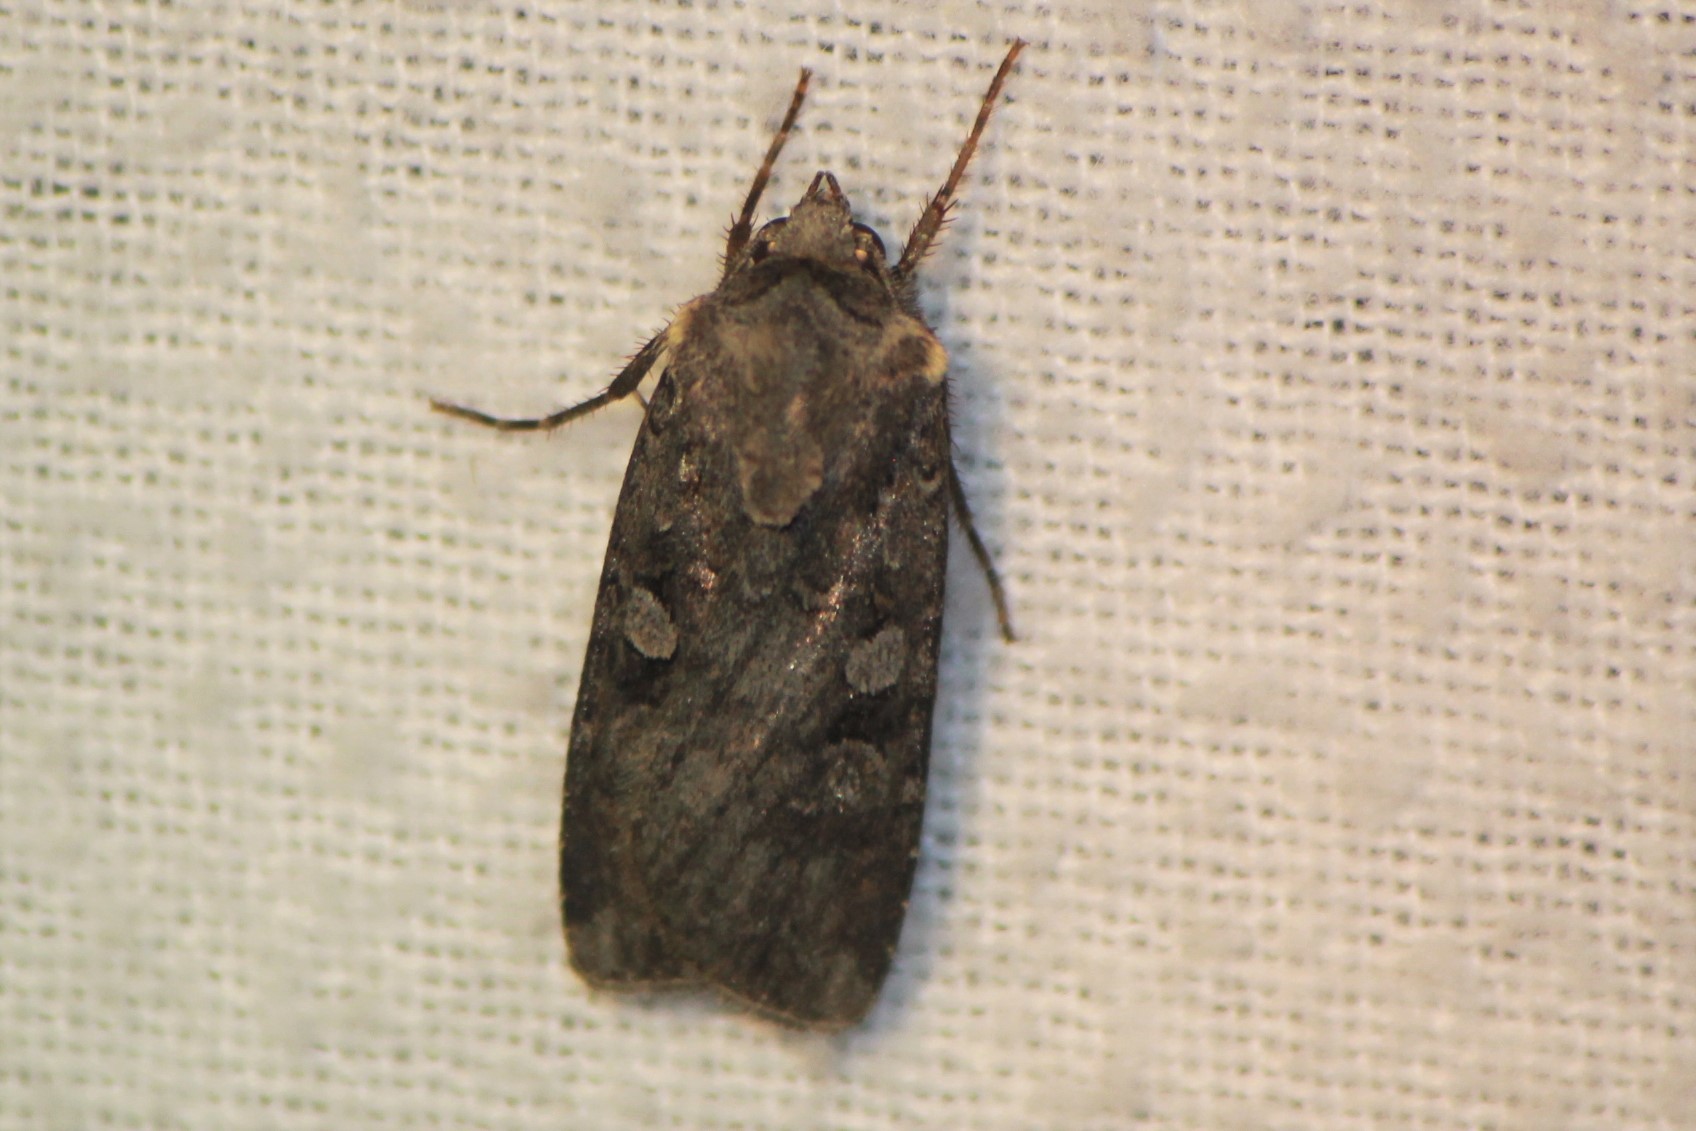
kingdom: Animalia
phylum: Arthropoda
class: Insecta
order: Lepidoptera
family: Noctuidae
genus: Euxoa
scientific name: Euxoa tessellata
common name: Striped cutworm
